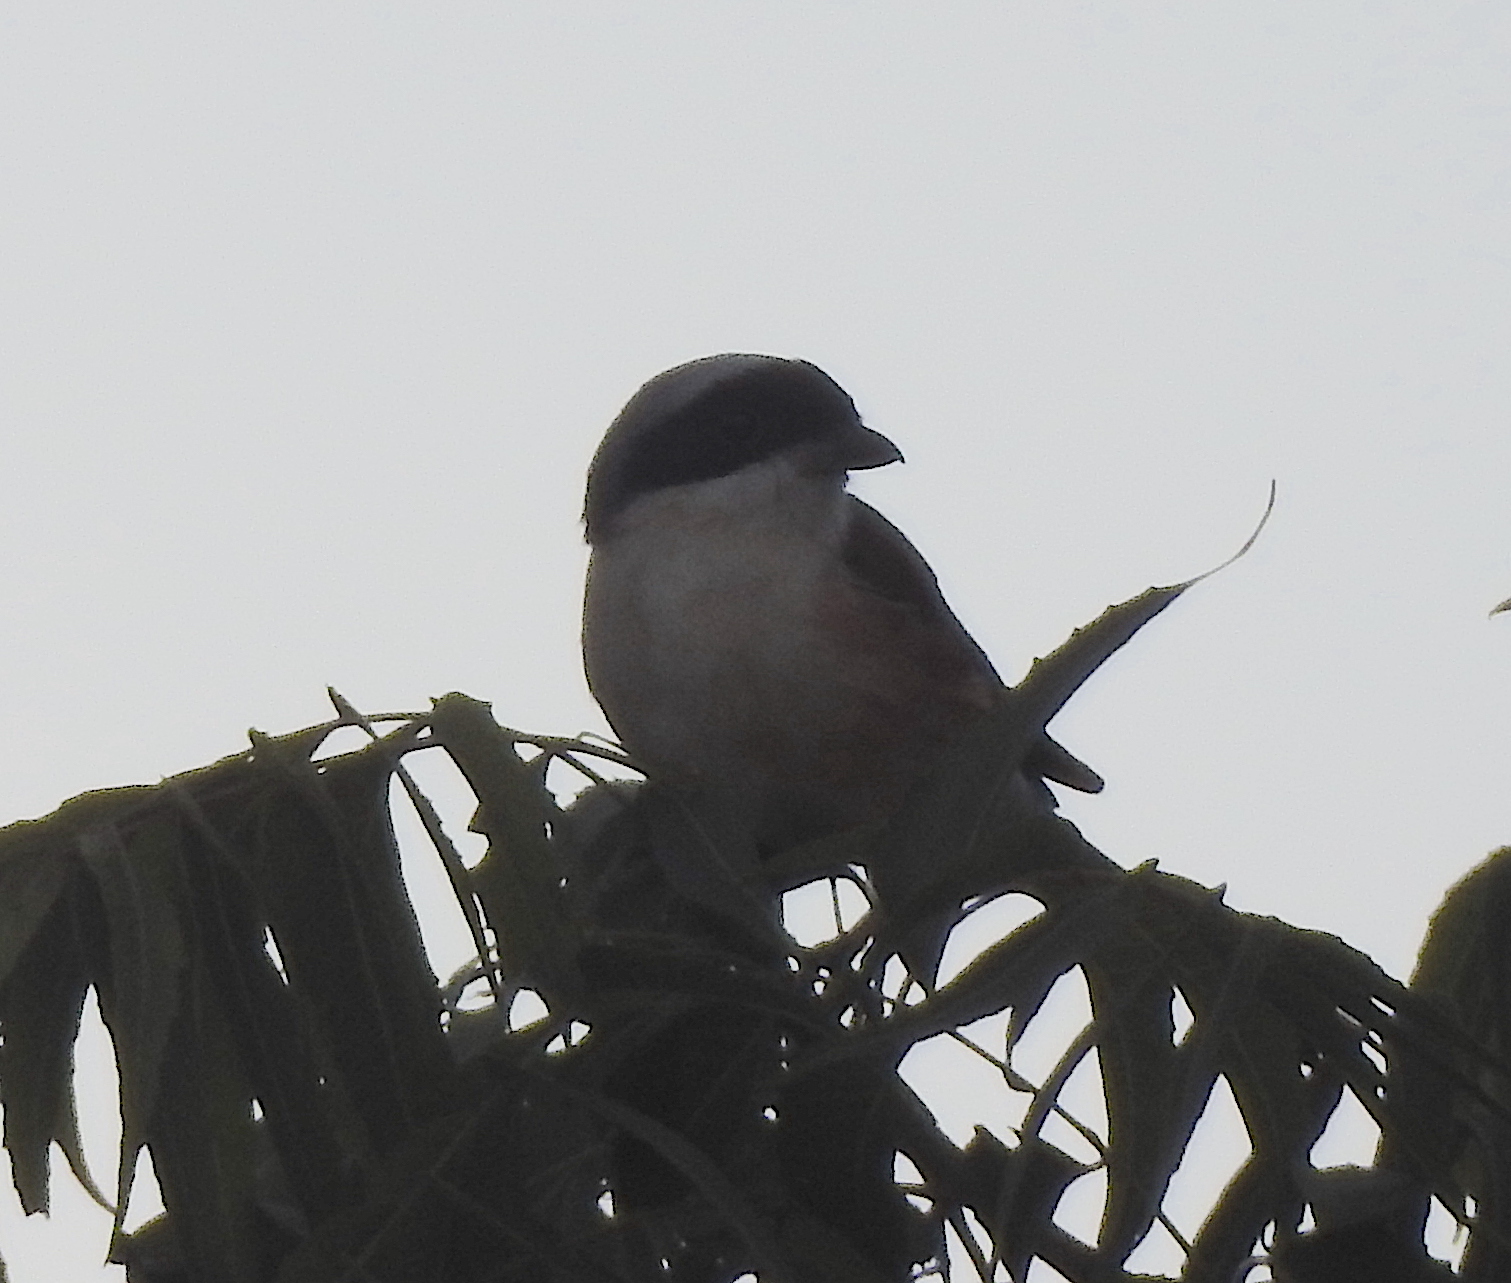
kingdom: Animalia
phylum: Chordata
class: Aves
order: Passeriformes
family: Laniidae
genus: Lanius
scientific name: Lanius vittatus
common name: Bay-backed shrike
